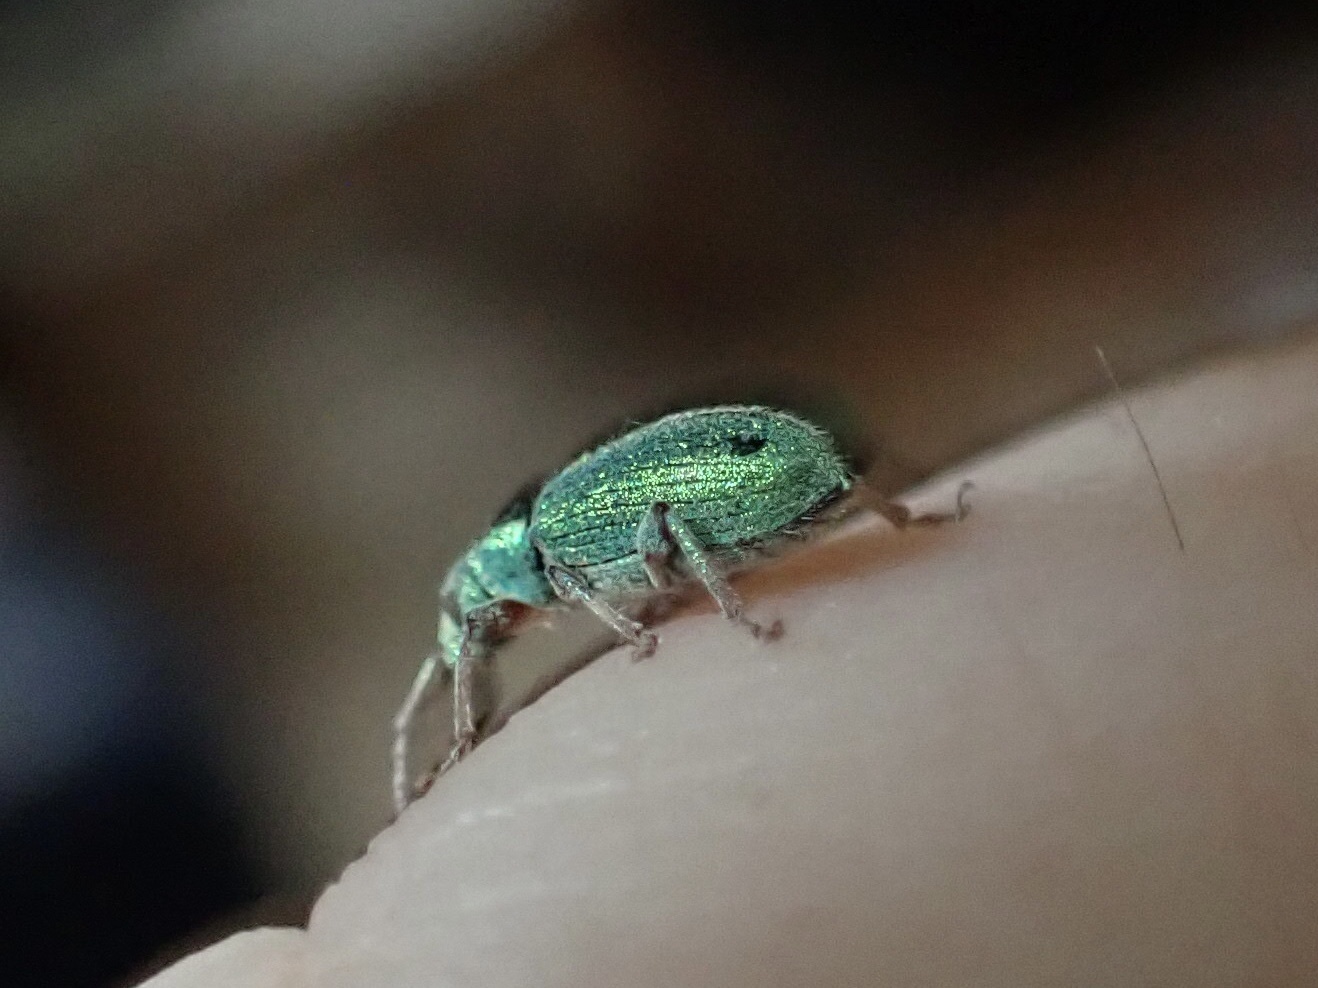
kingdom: Animalia
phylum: Arthropoda
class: Insecta
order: Coleoptera
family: Curculionidae
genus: Phyllobius
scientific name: Phyllobius argentatus
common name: Silver-green leaf weevil
